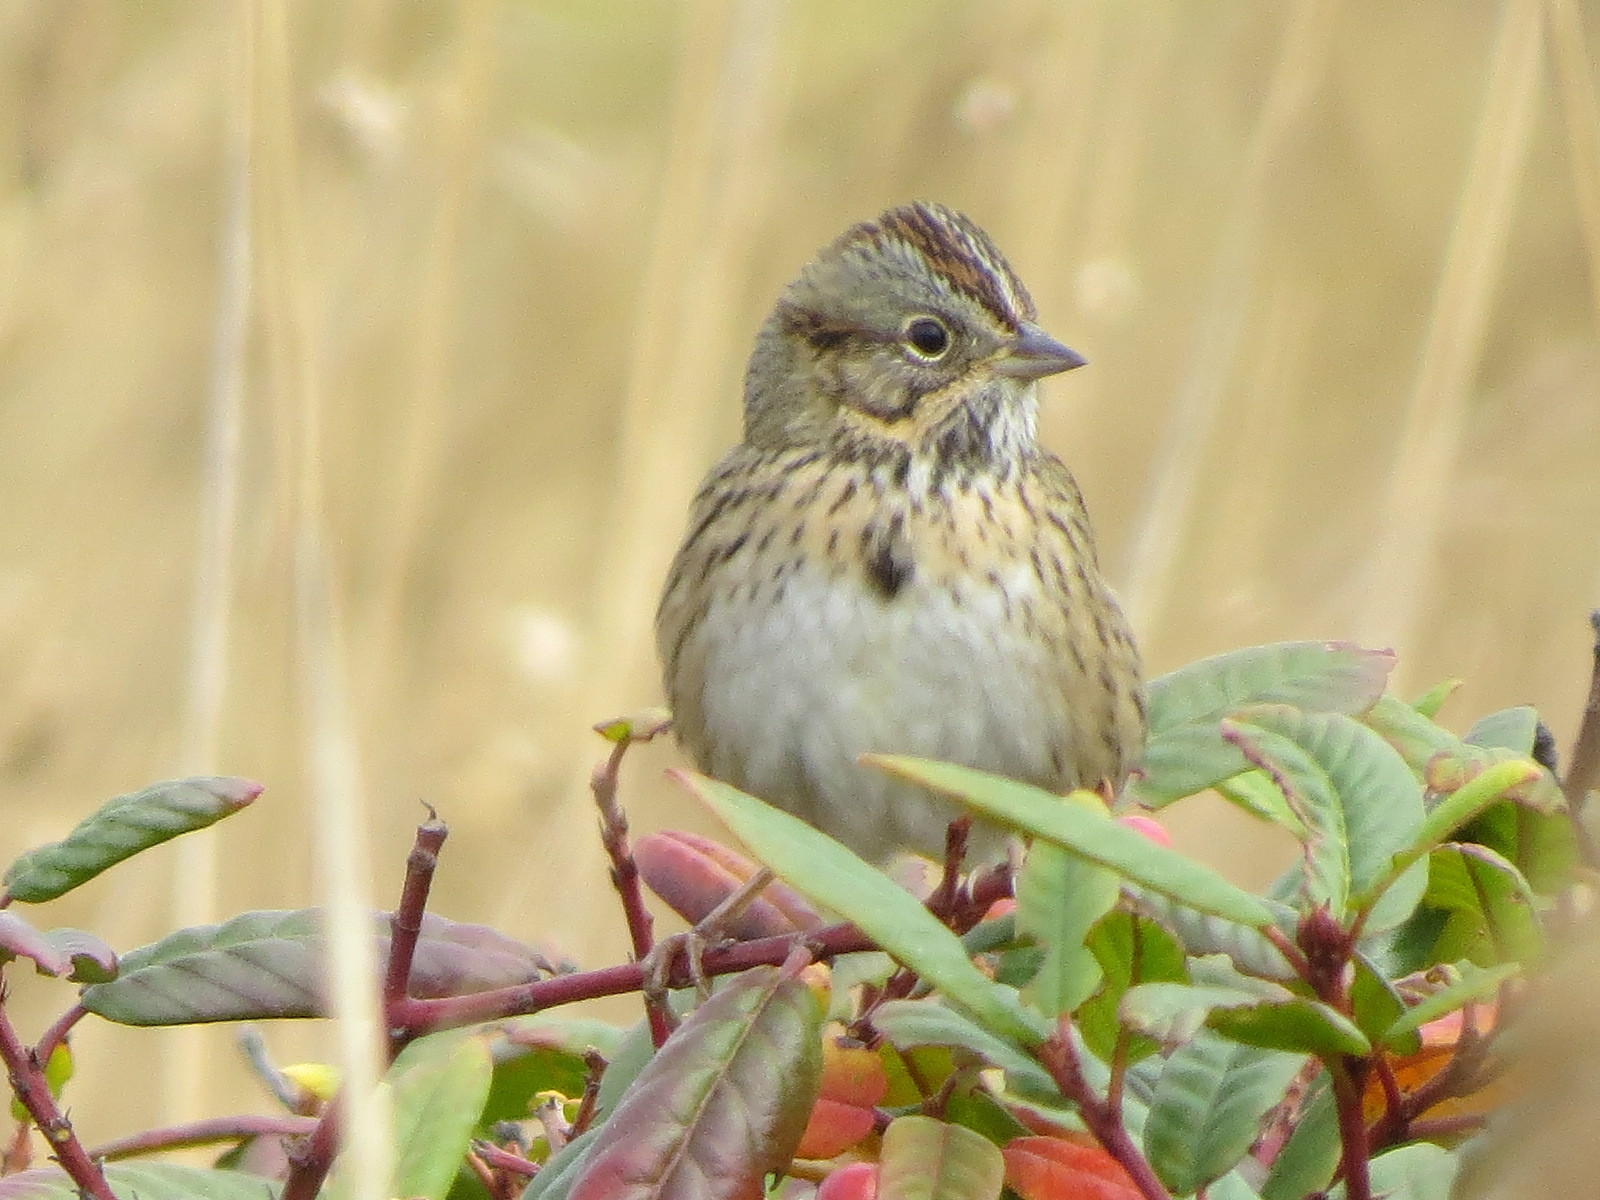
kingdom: Animalia
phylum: Chordata
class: Aves
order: Passeriformes
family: Passerellidae
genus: Melospiza
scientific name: Melospiza lincolnii
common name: Lincoln's sparrow
